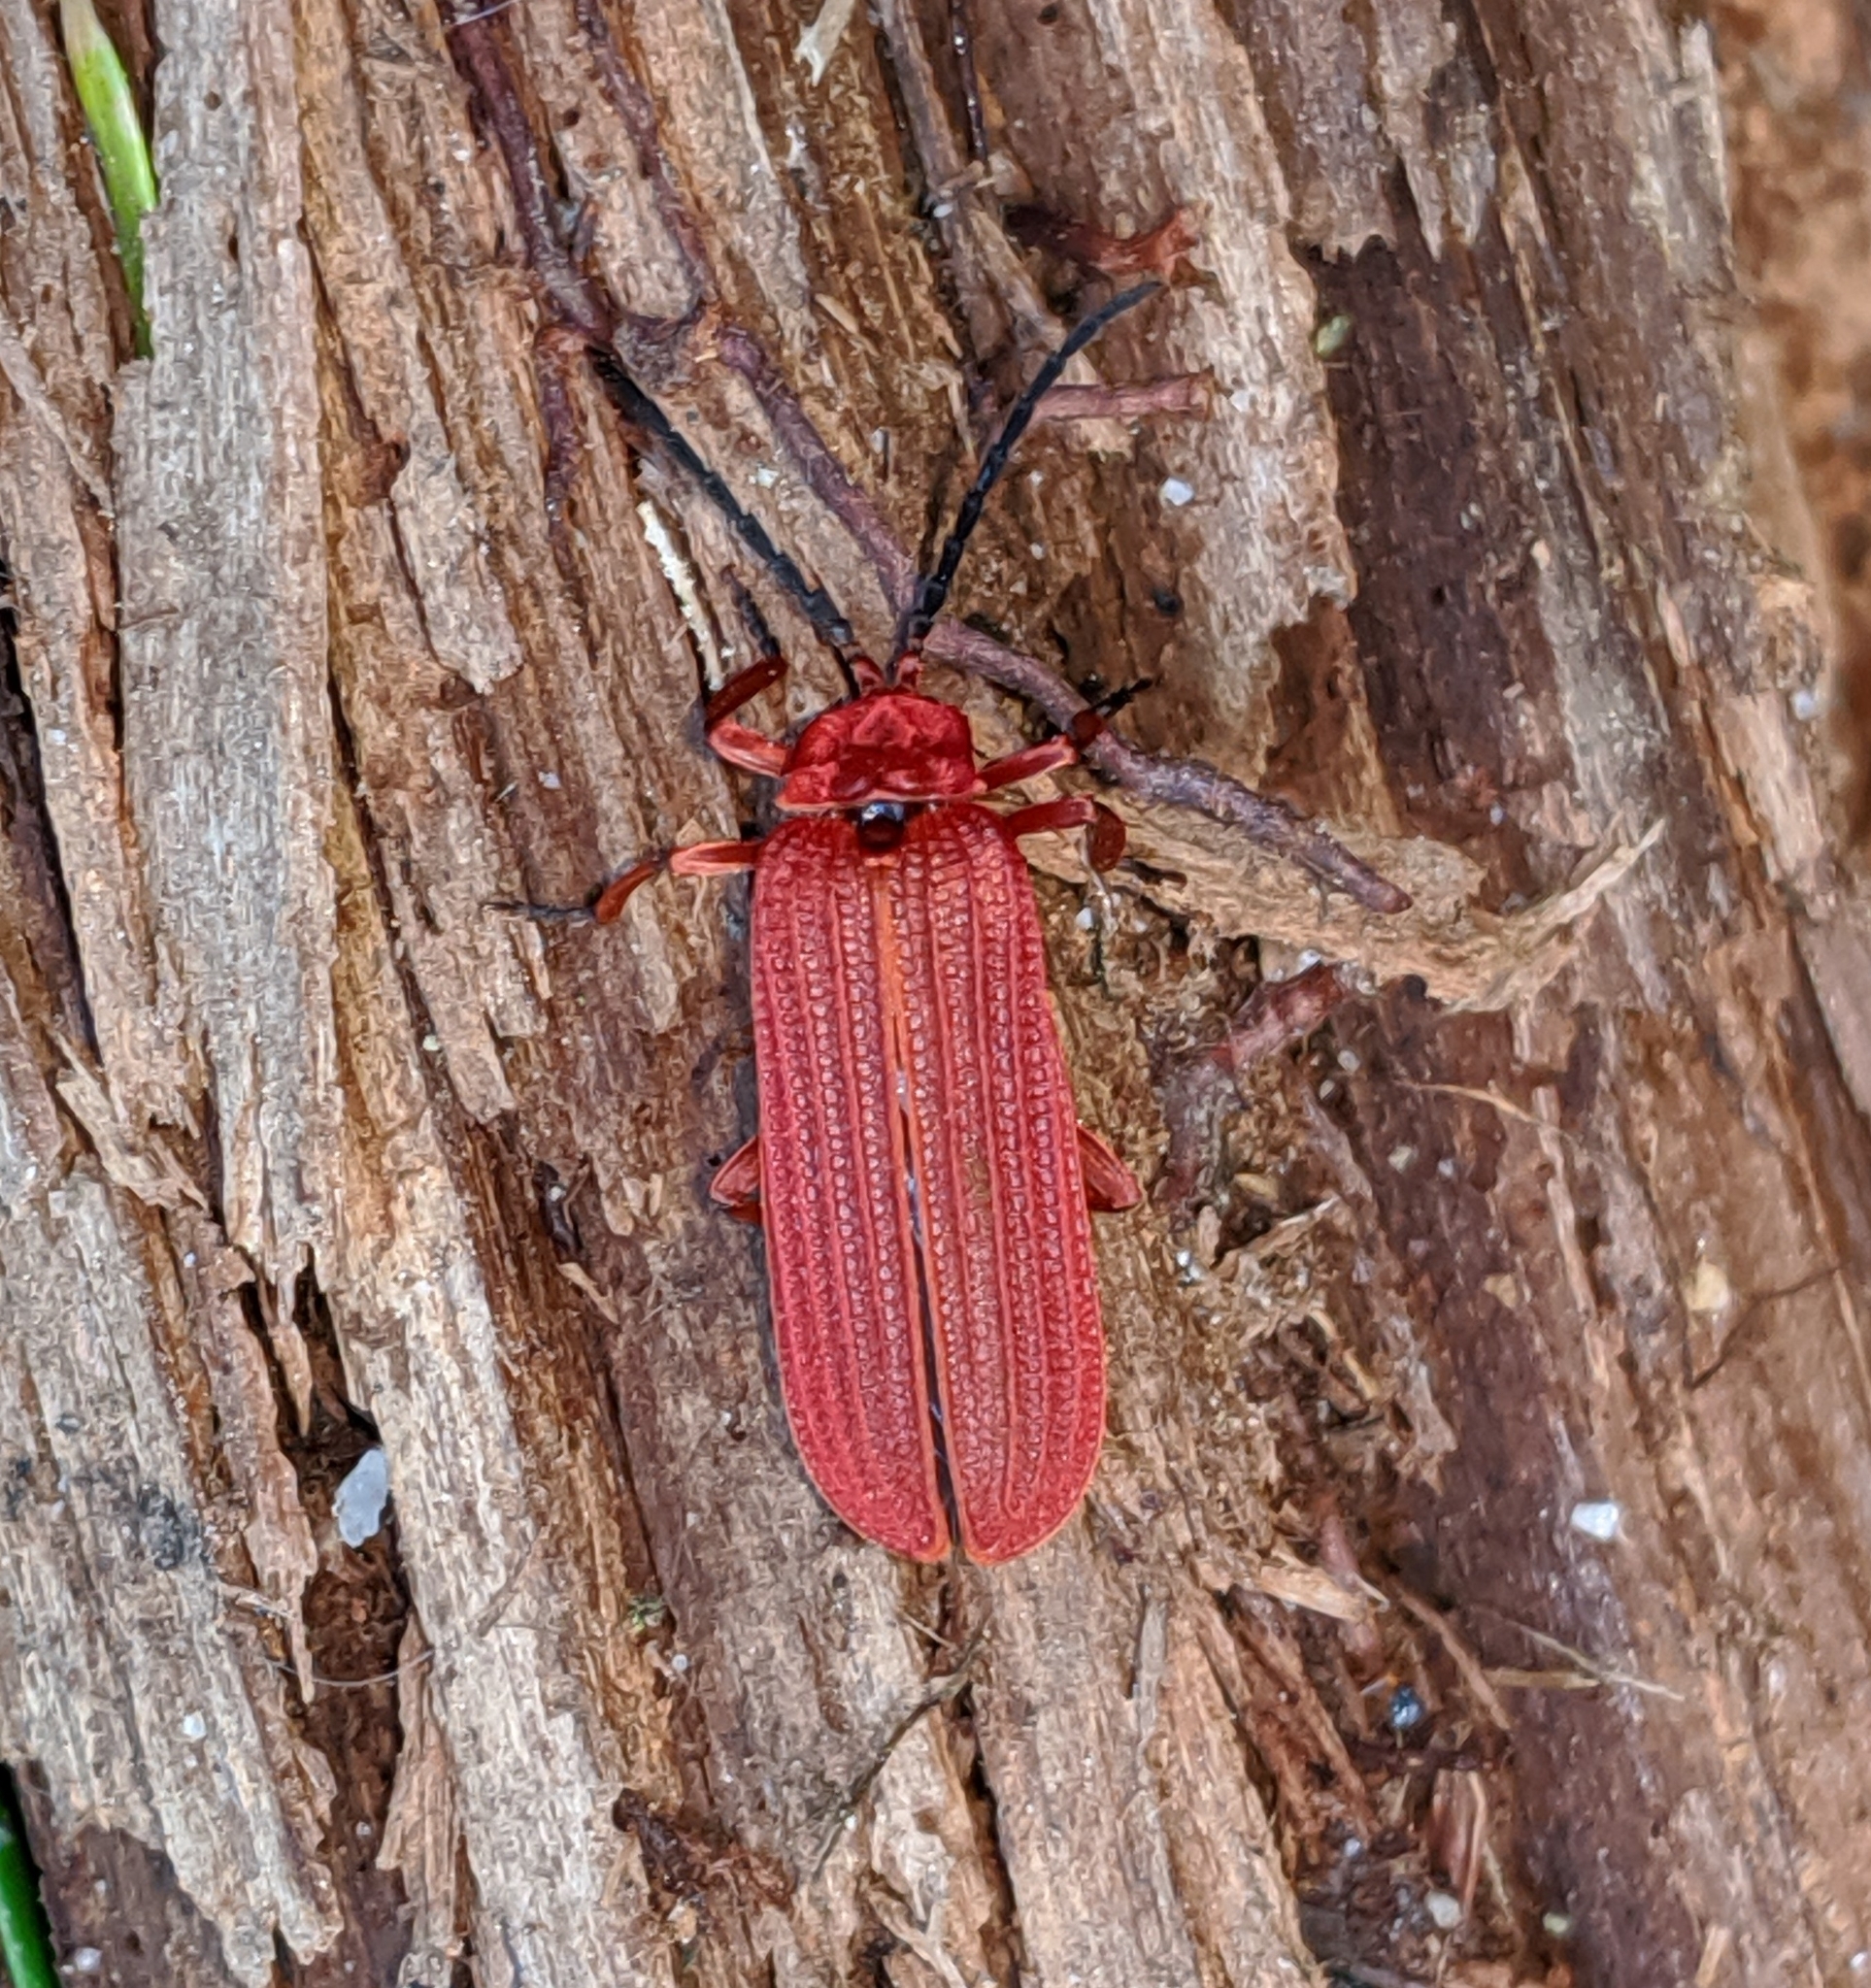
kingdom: Animalia
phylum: Arthropoda
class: Insecta
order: Coleoptera
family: Lycidae
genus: Punicealis
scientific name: Punicealis hamata
